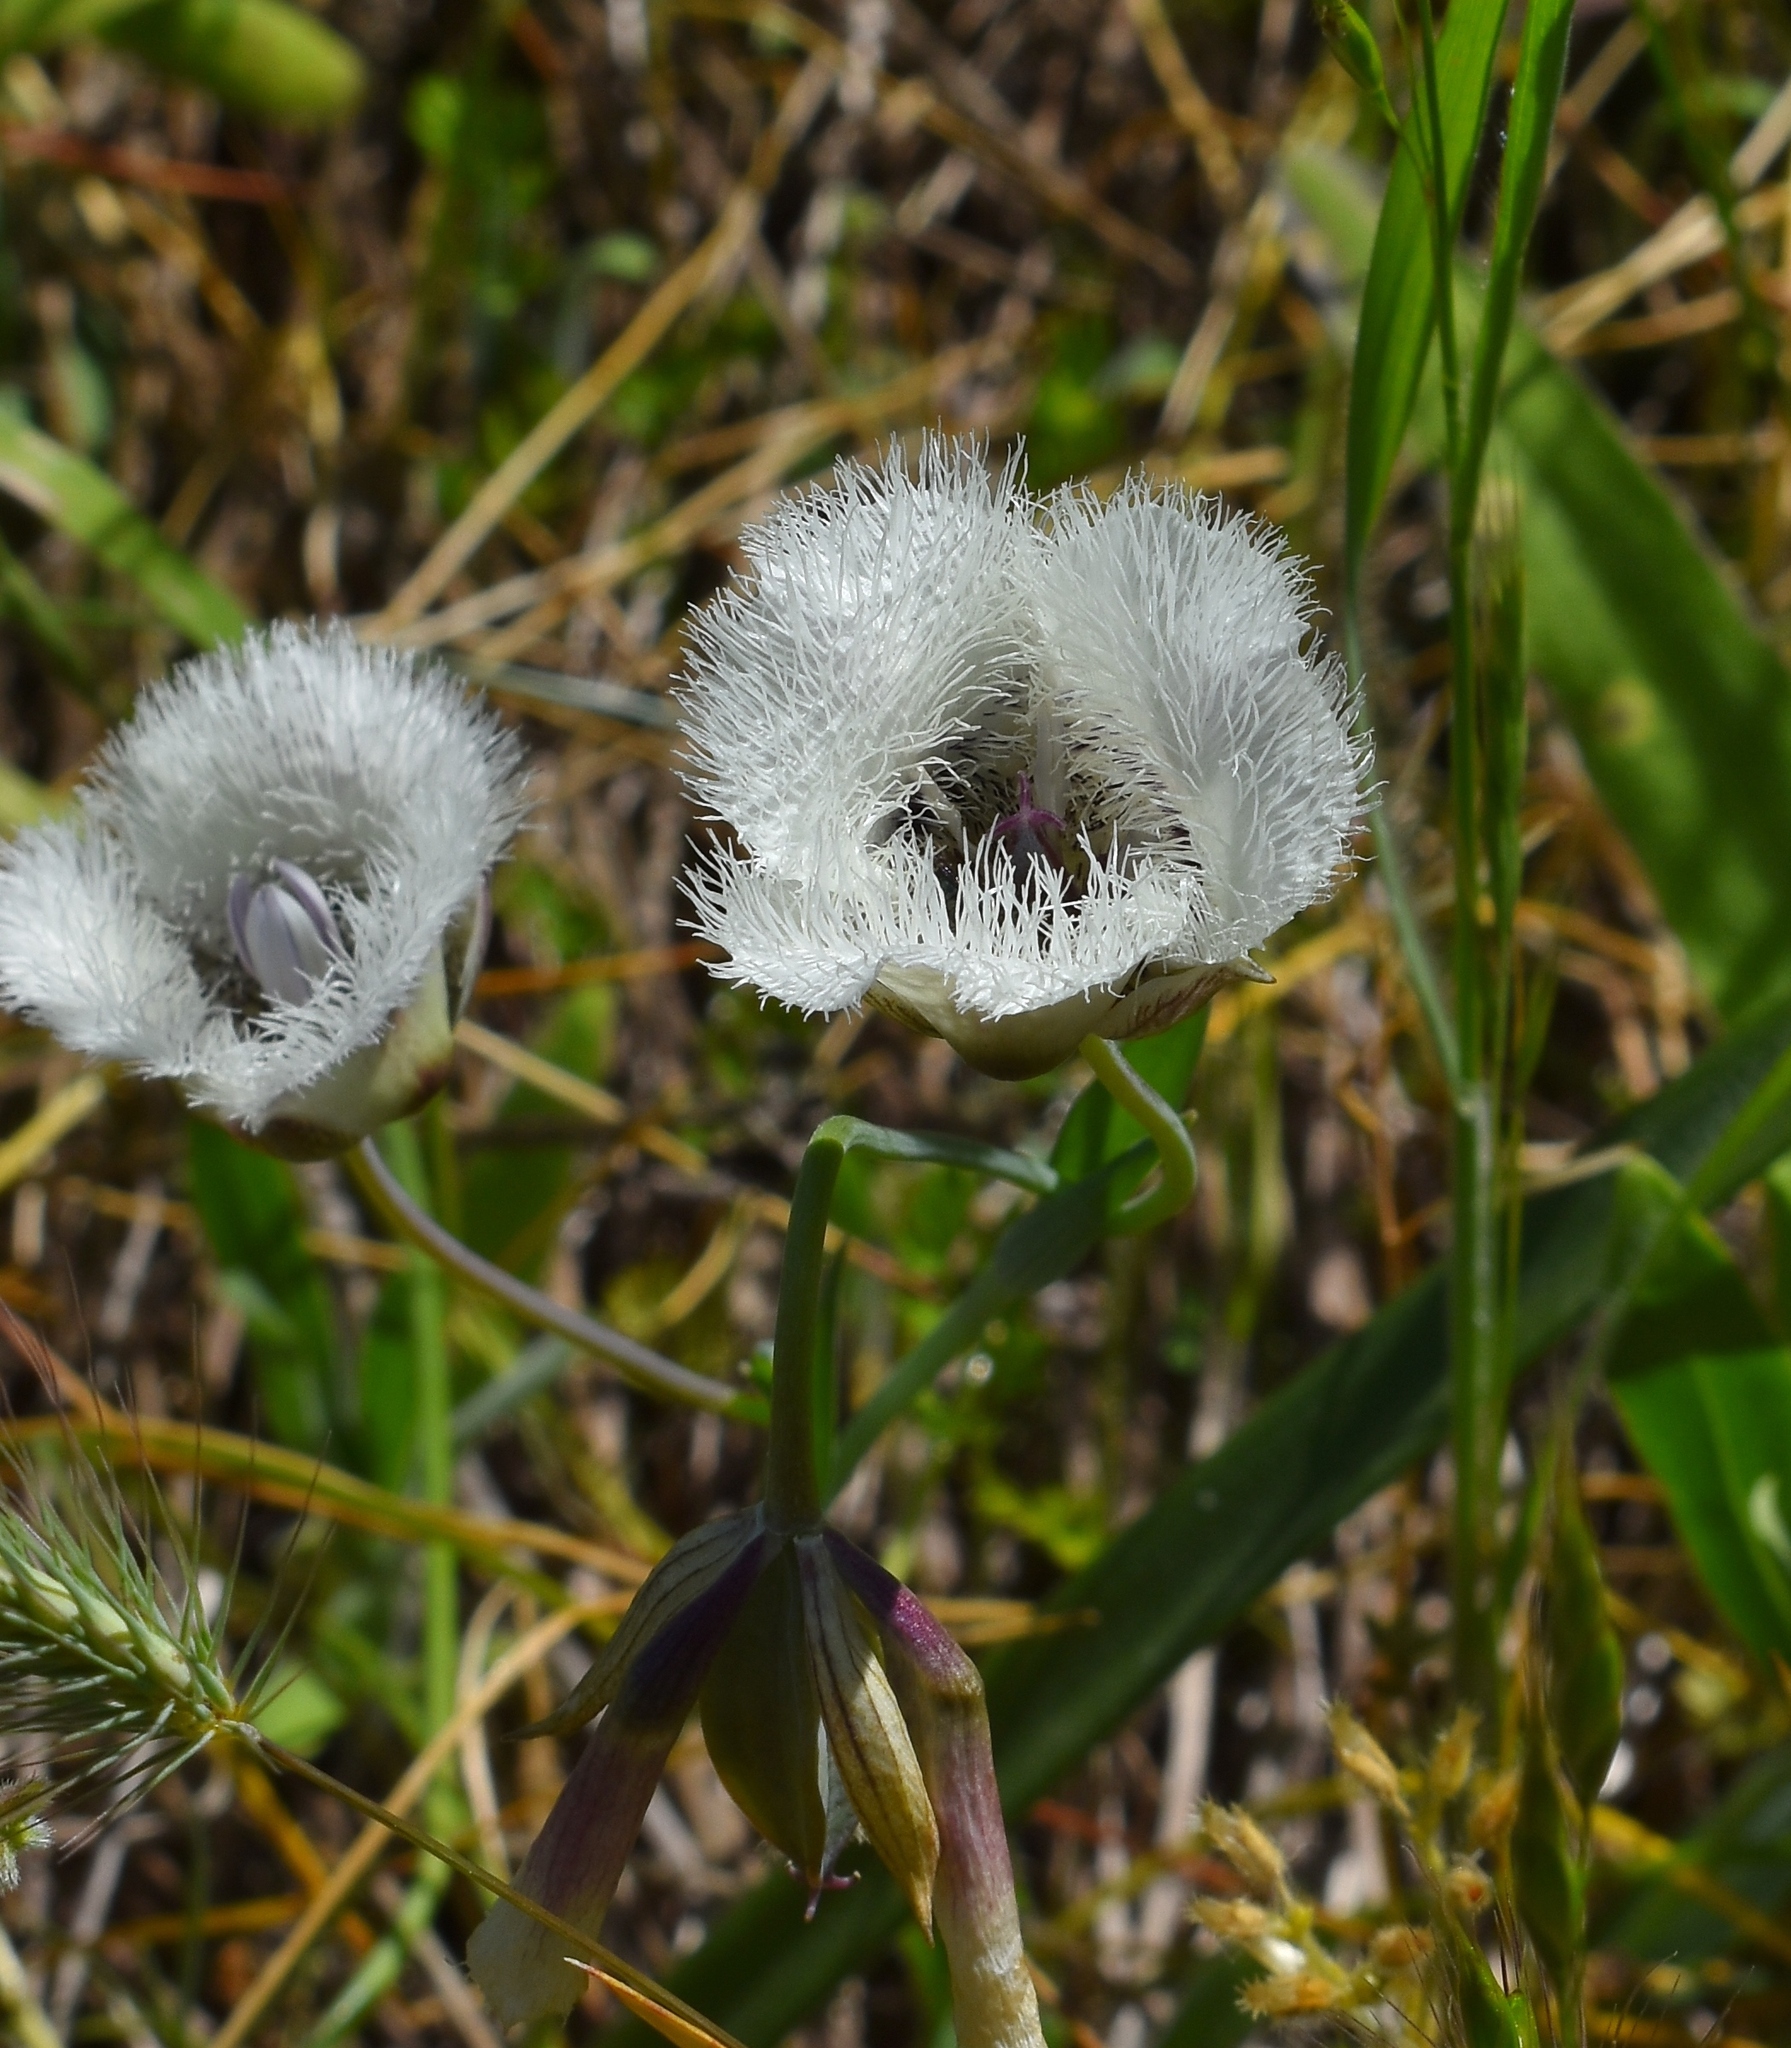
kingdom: Plantae
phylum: Tracheophyta
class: Liliopsida
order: Liliales
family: Liliaceae
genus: Calochortus
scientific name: Calochortus tolmiei
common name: Pussy-ears
